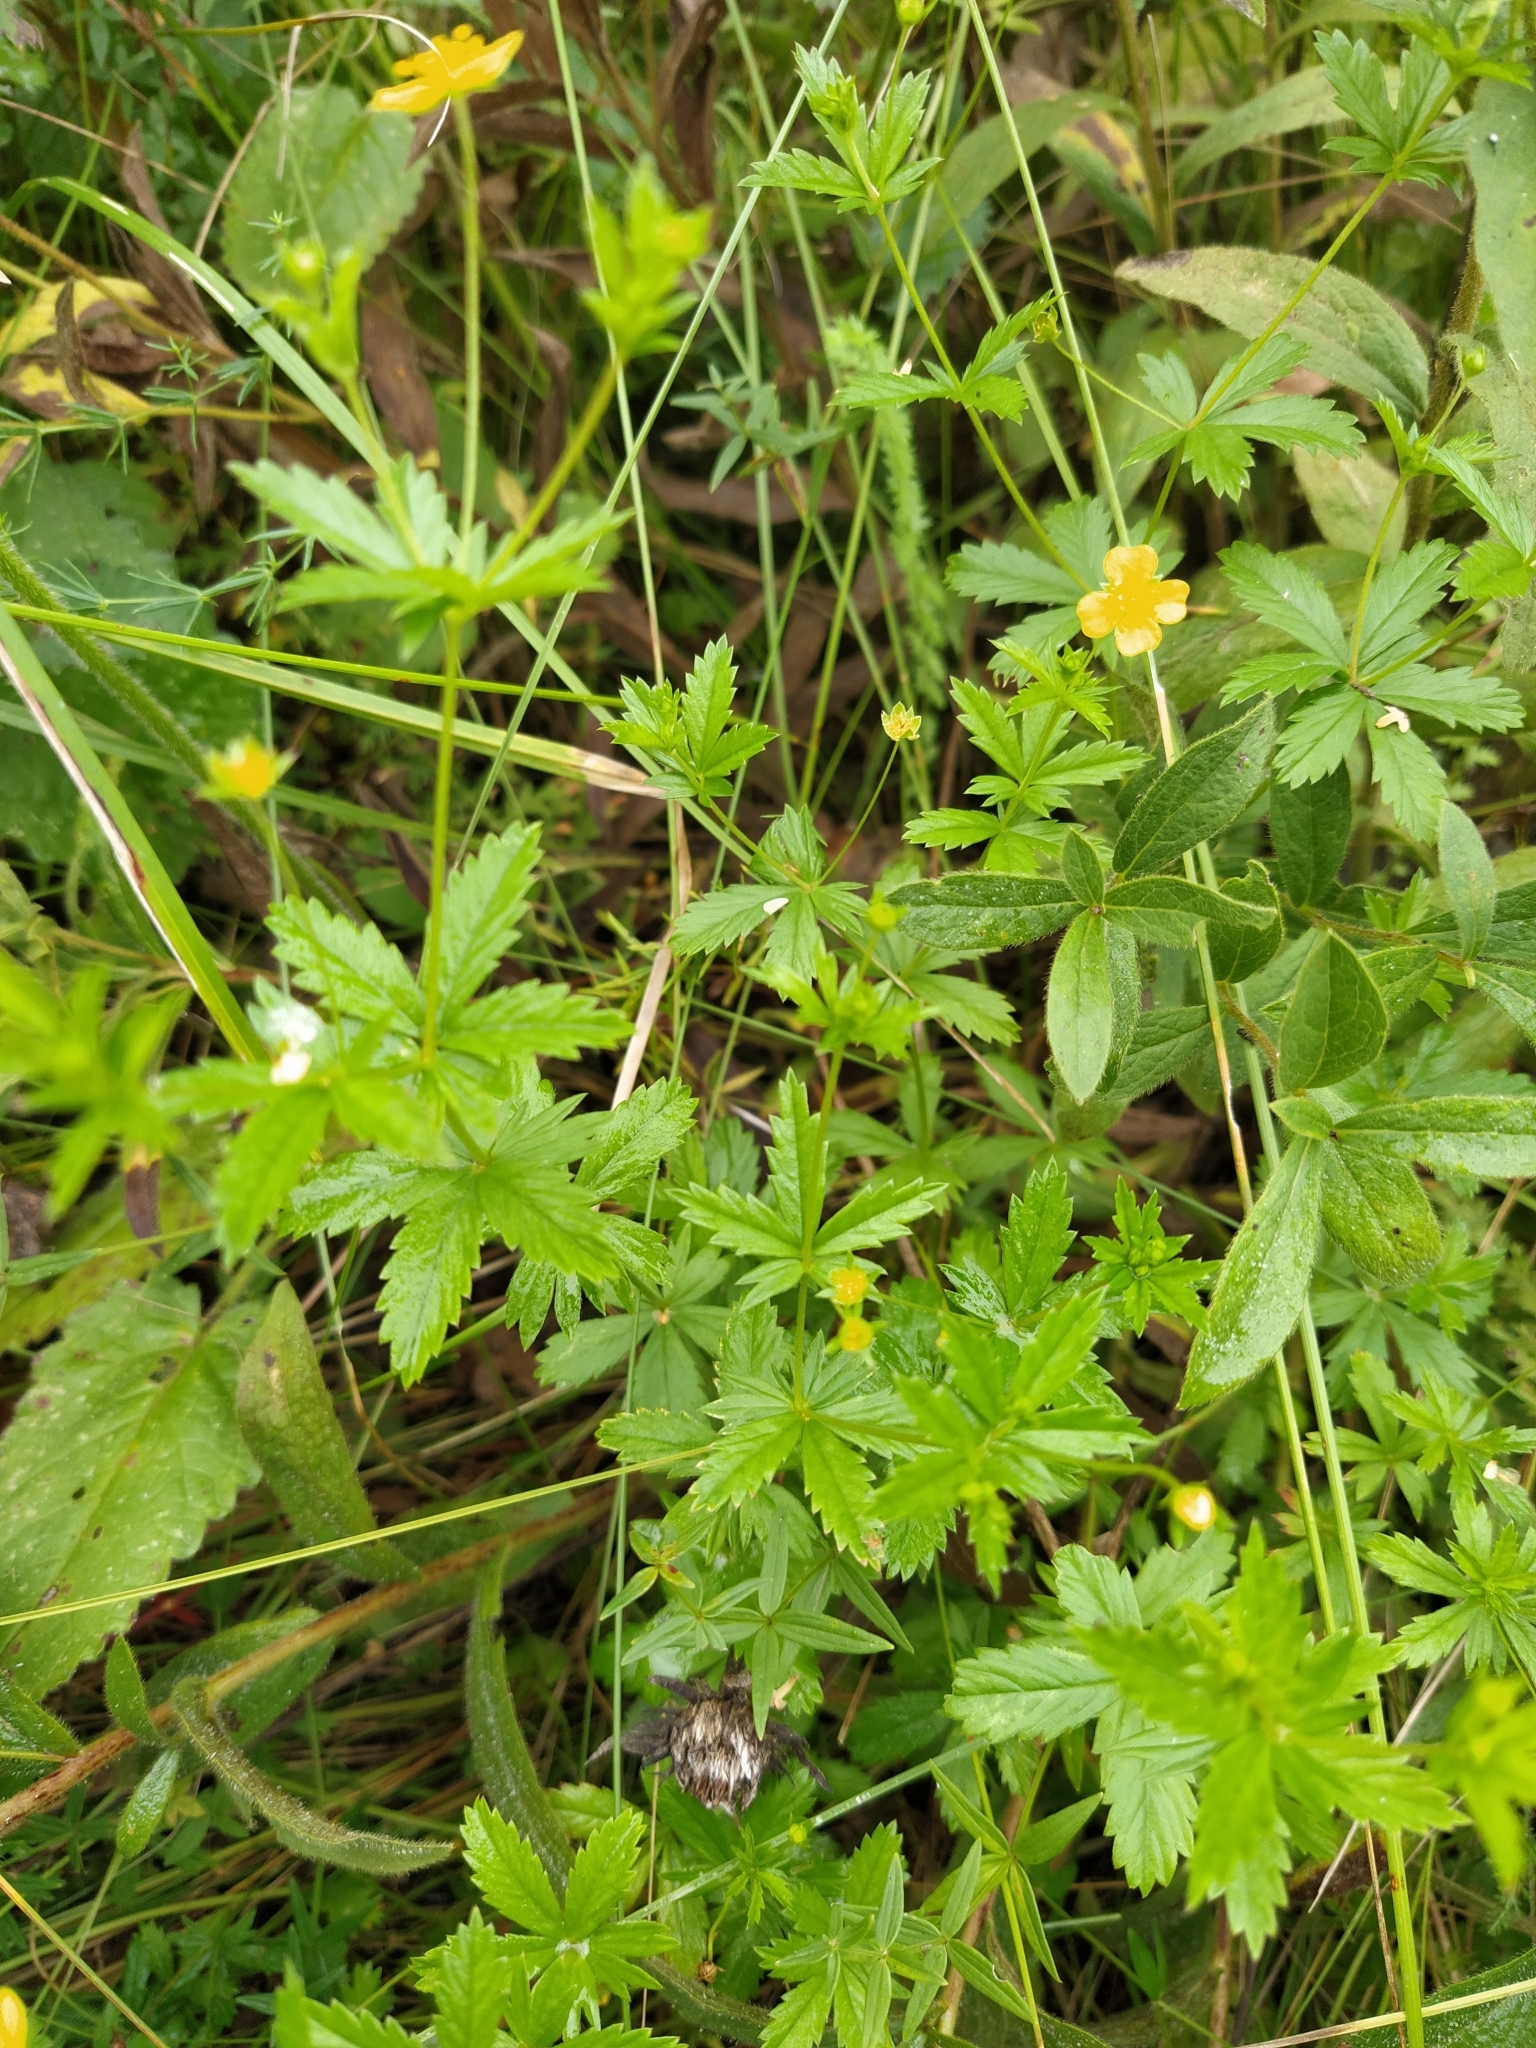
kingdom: Plantae
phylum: Tracheophyta
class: Magnoliopsida
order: Rosales
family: Rosaceae
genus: Potentilla
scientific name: Potentilla erecta
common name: Tormentil
